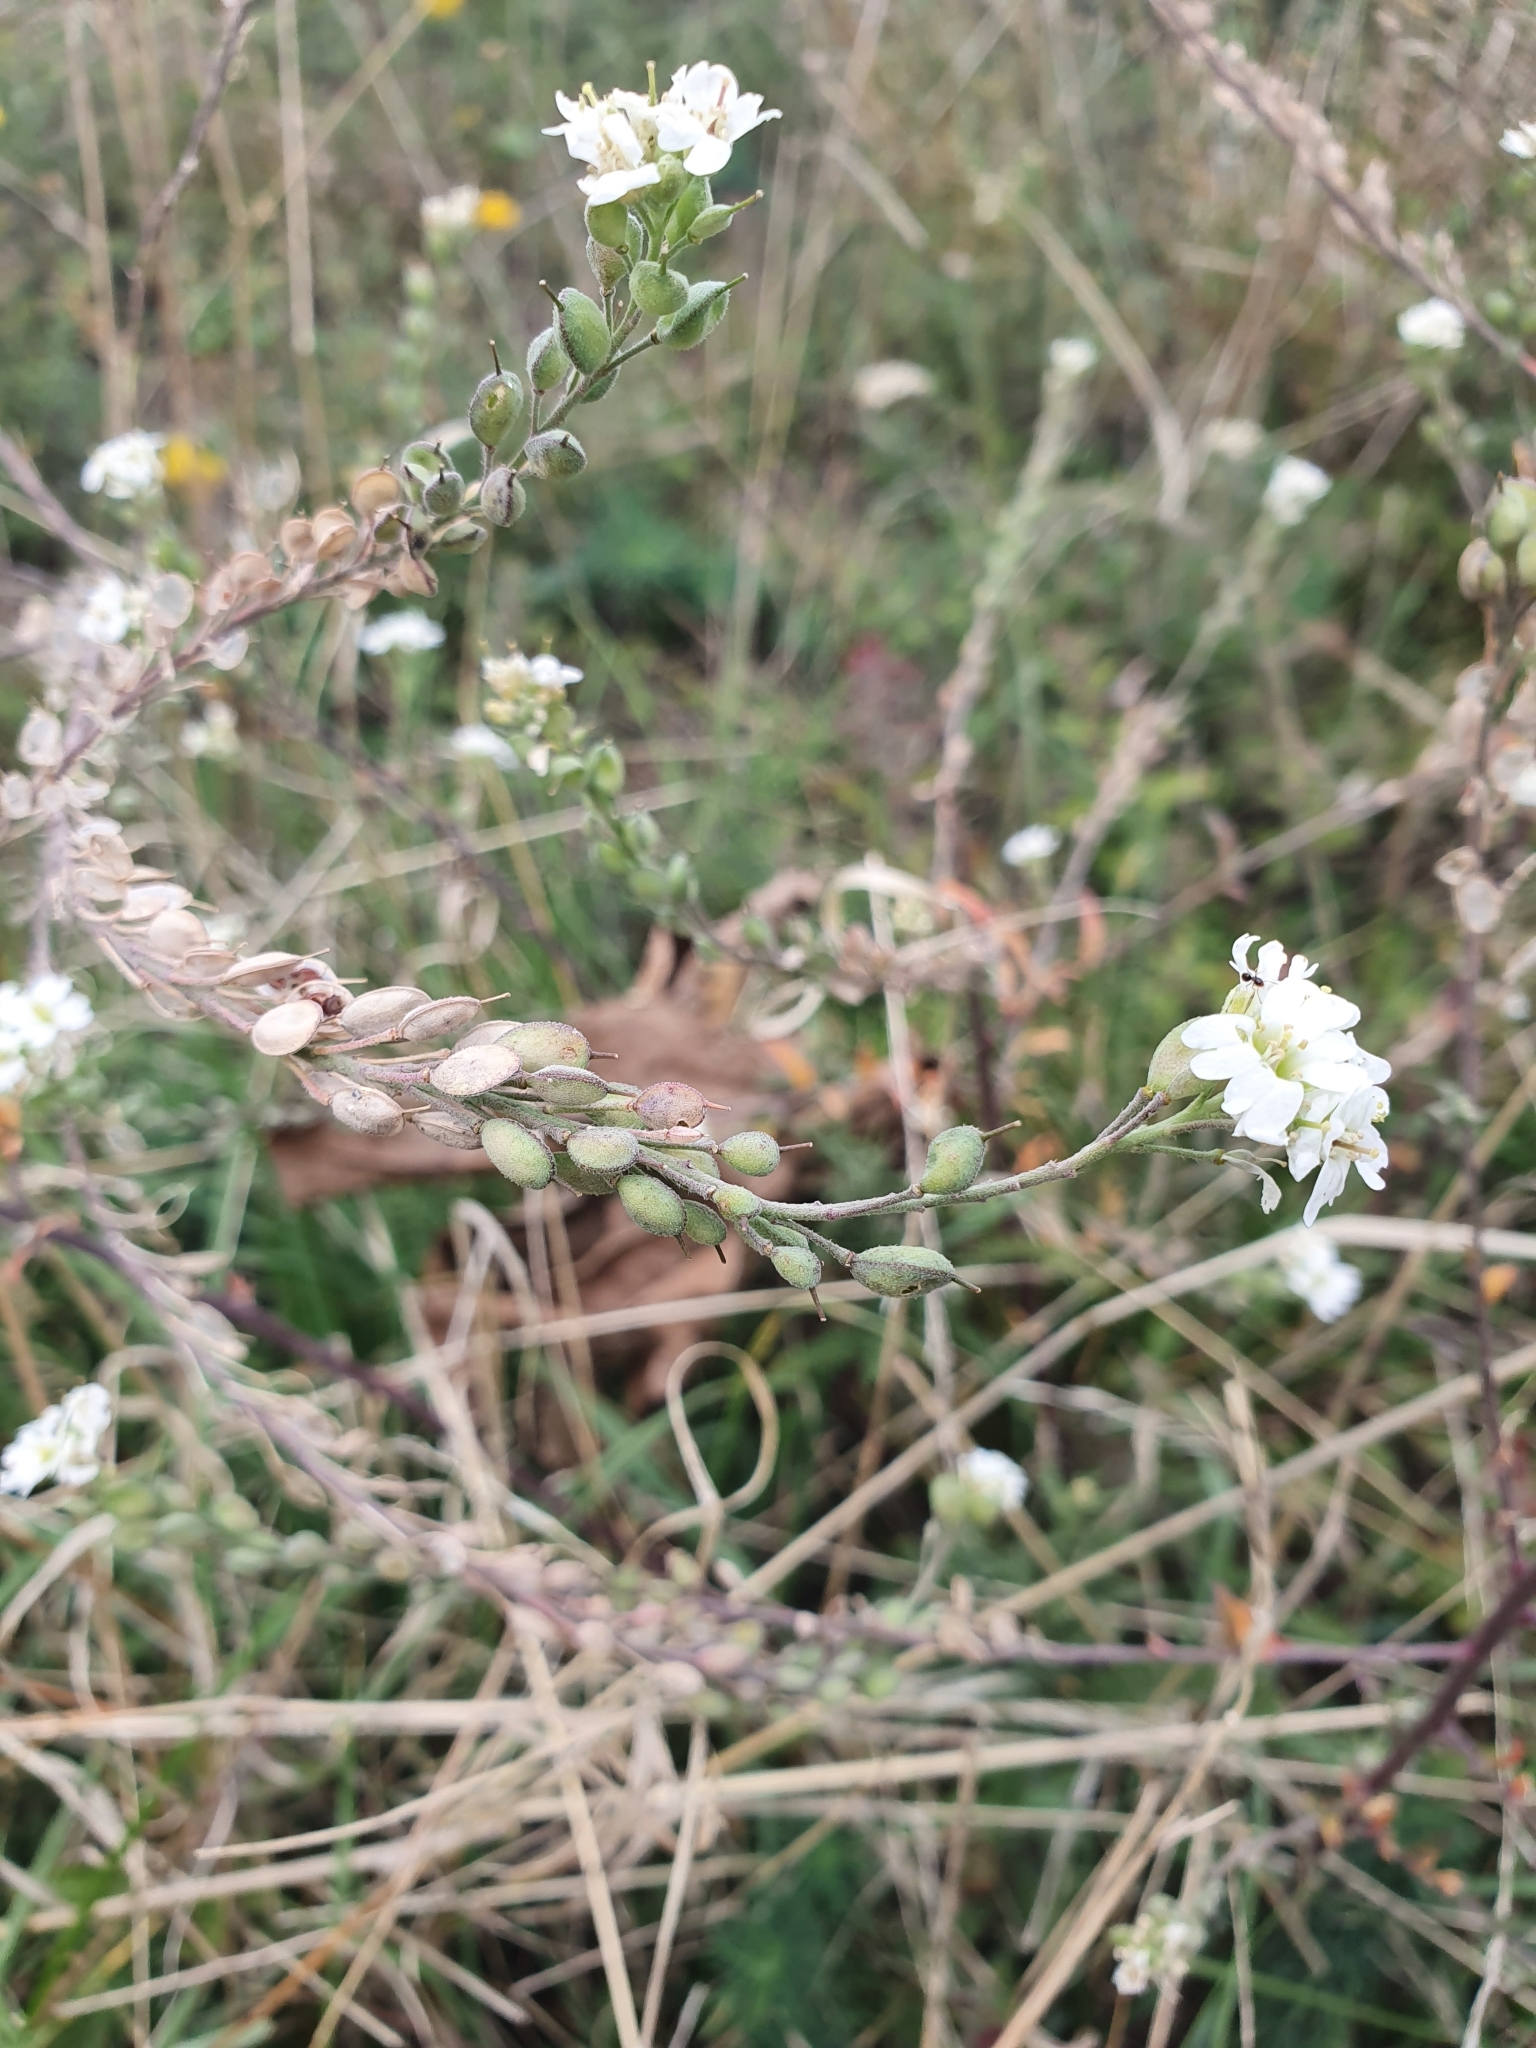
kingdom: Plantae
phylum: Tracheophyta
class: Magnoliopsida
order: Brassicales
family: Brassicaceae
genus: Berteroa
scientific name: Berteroa incana
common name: Hoary alison
